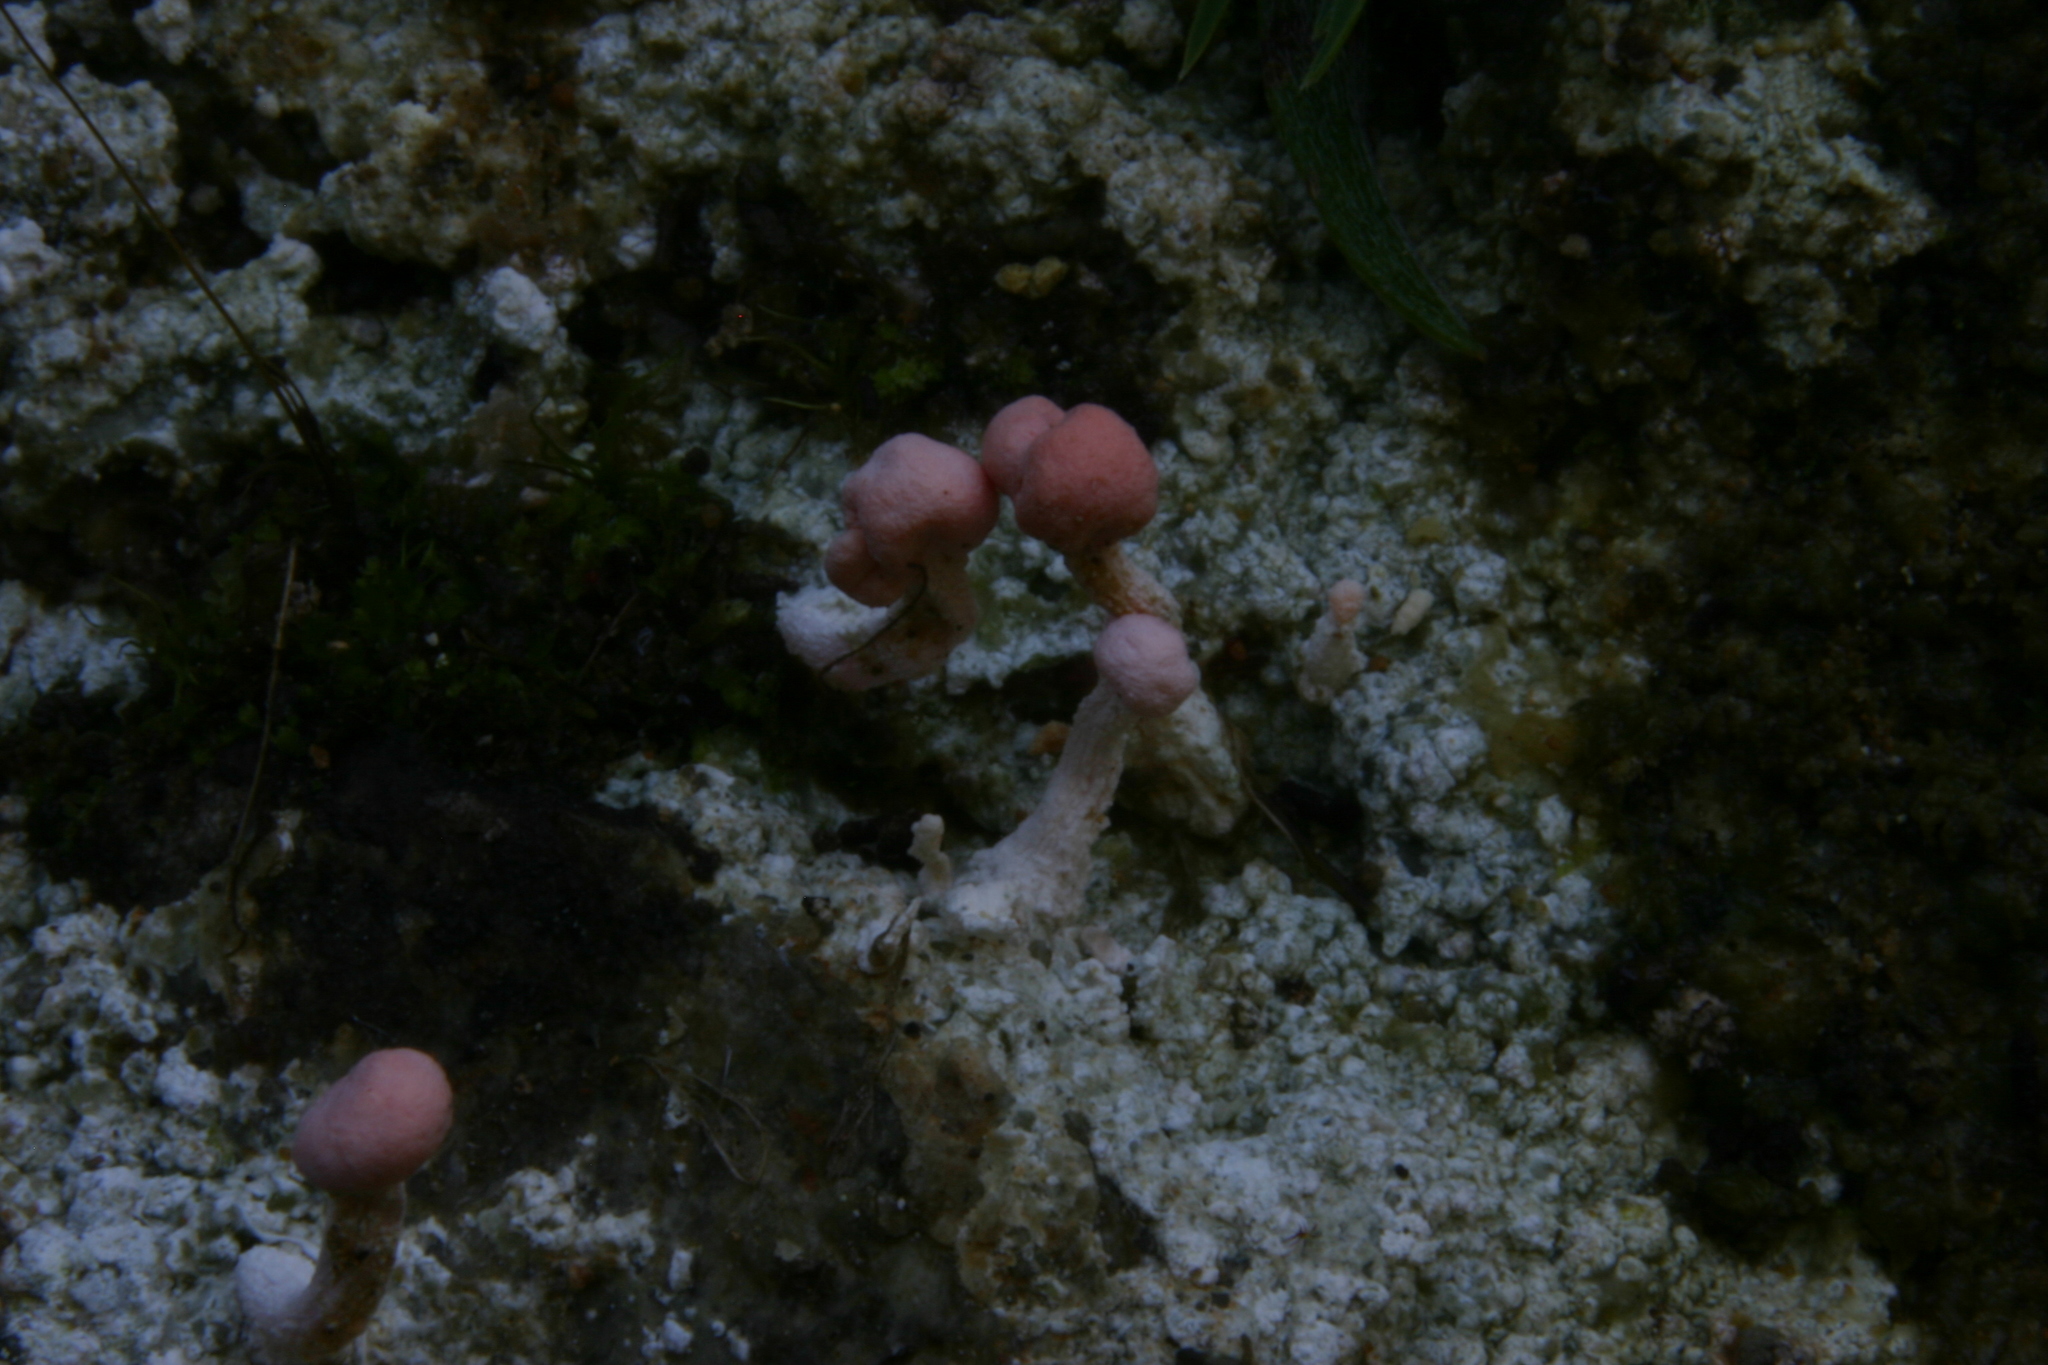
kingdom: Fungi
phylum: Ascomycota
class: Lecanoromycetes
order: Pertusariales
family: Icmadophilaceae
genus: Dibaeis
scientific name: Dibaeis arcuata
